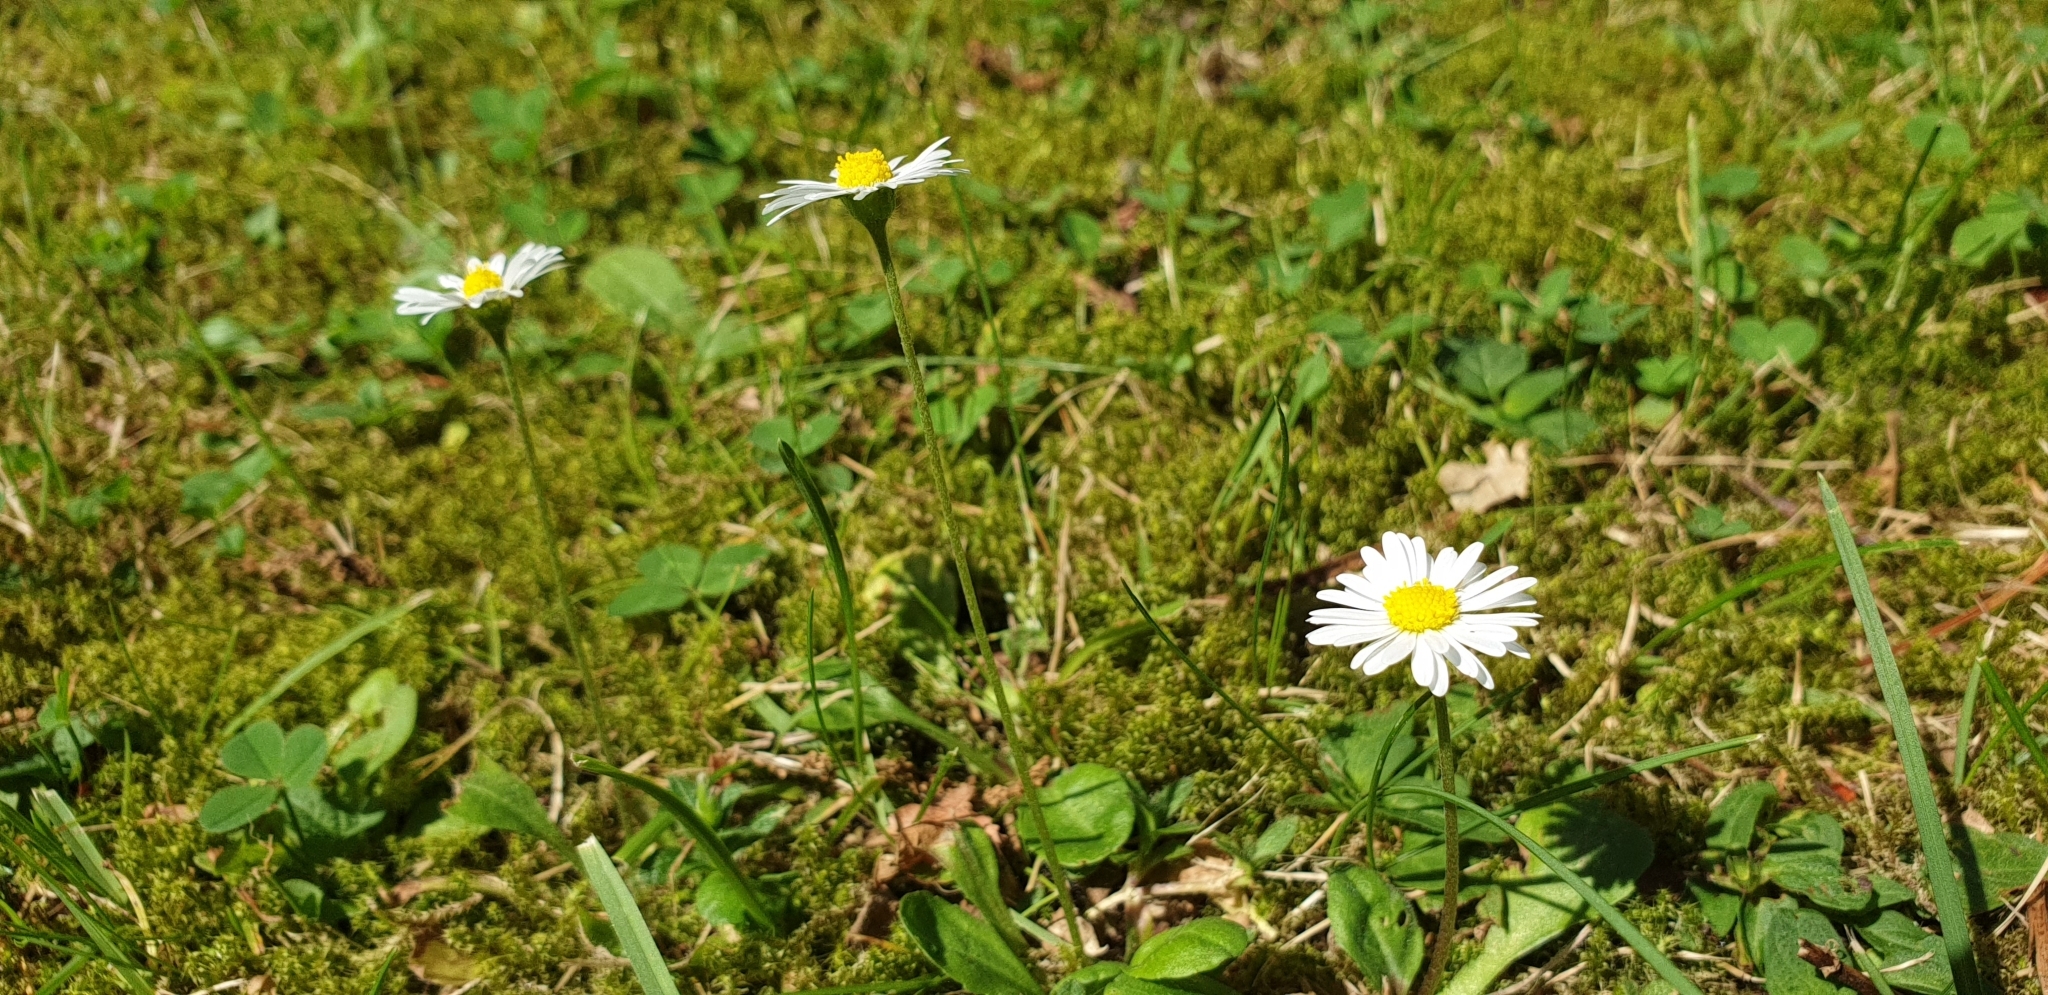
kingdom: Plantae
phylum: Tracheophyta
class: Magnoliopsida
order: Asterales
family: Asteraceae
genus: Bellis
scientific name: Bellis perennis
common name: Lawndaisy
